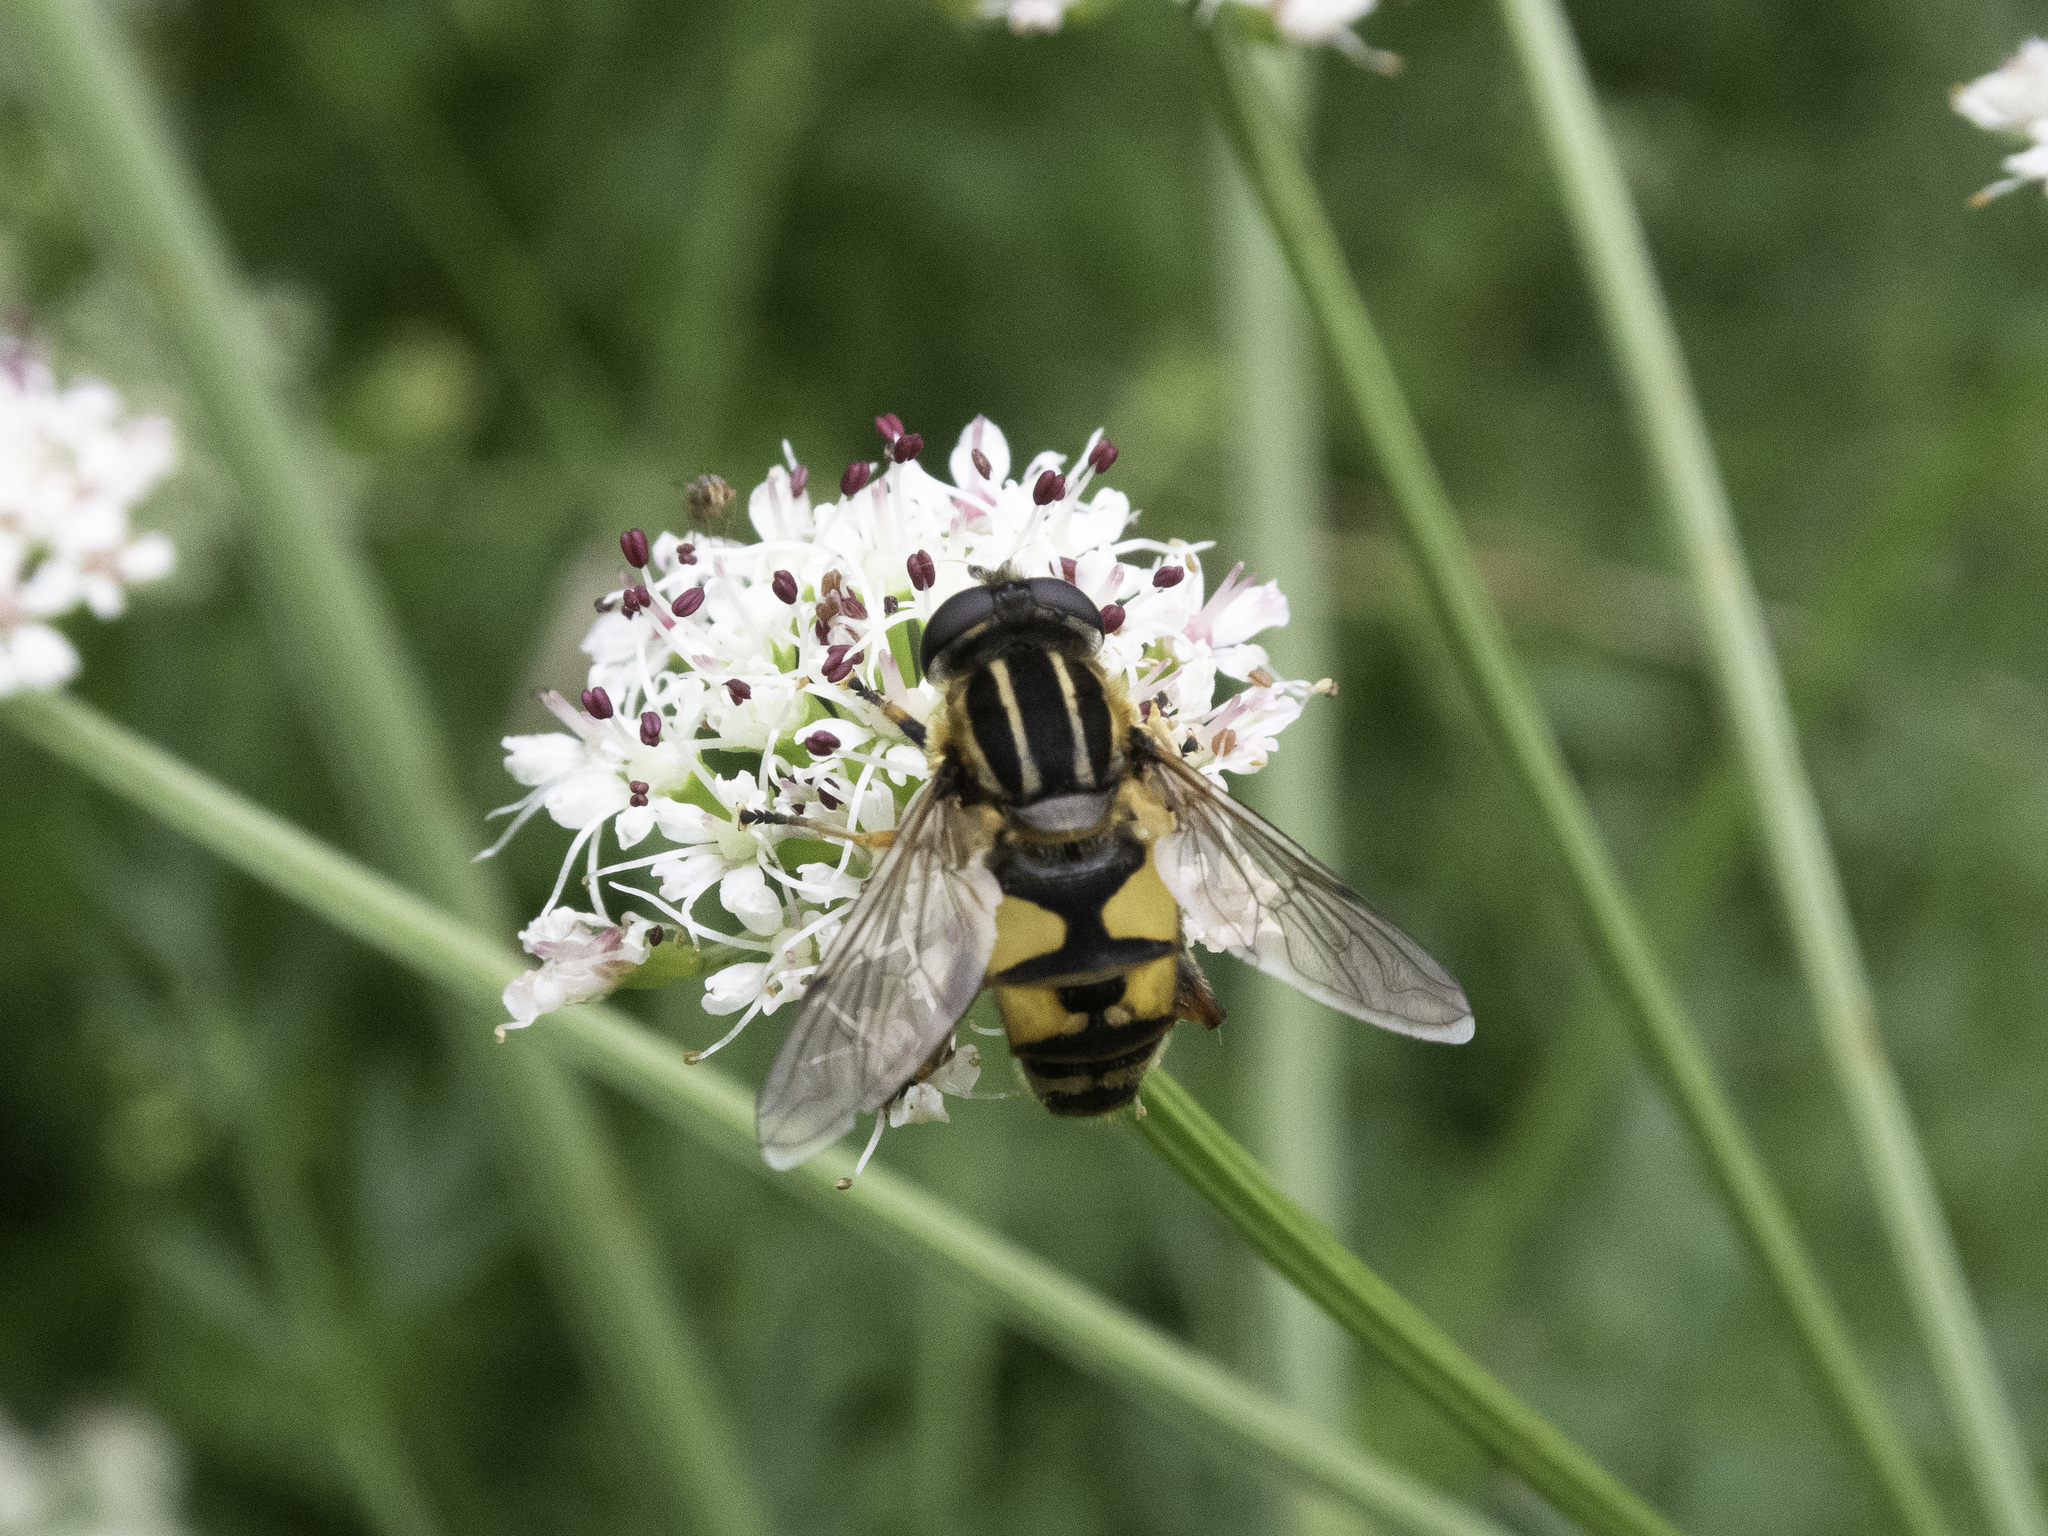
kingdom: Animalia
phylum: Arthropoda
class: Insecta
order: Diptera
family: Syrphidae
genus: Helophilus
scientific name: Helophilus pendulus
